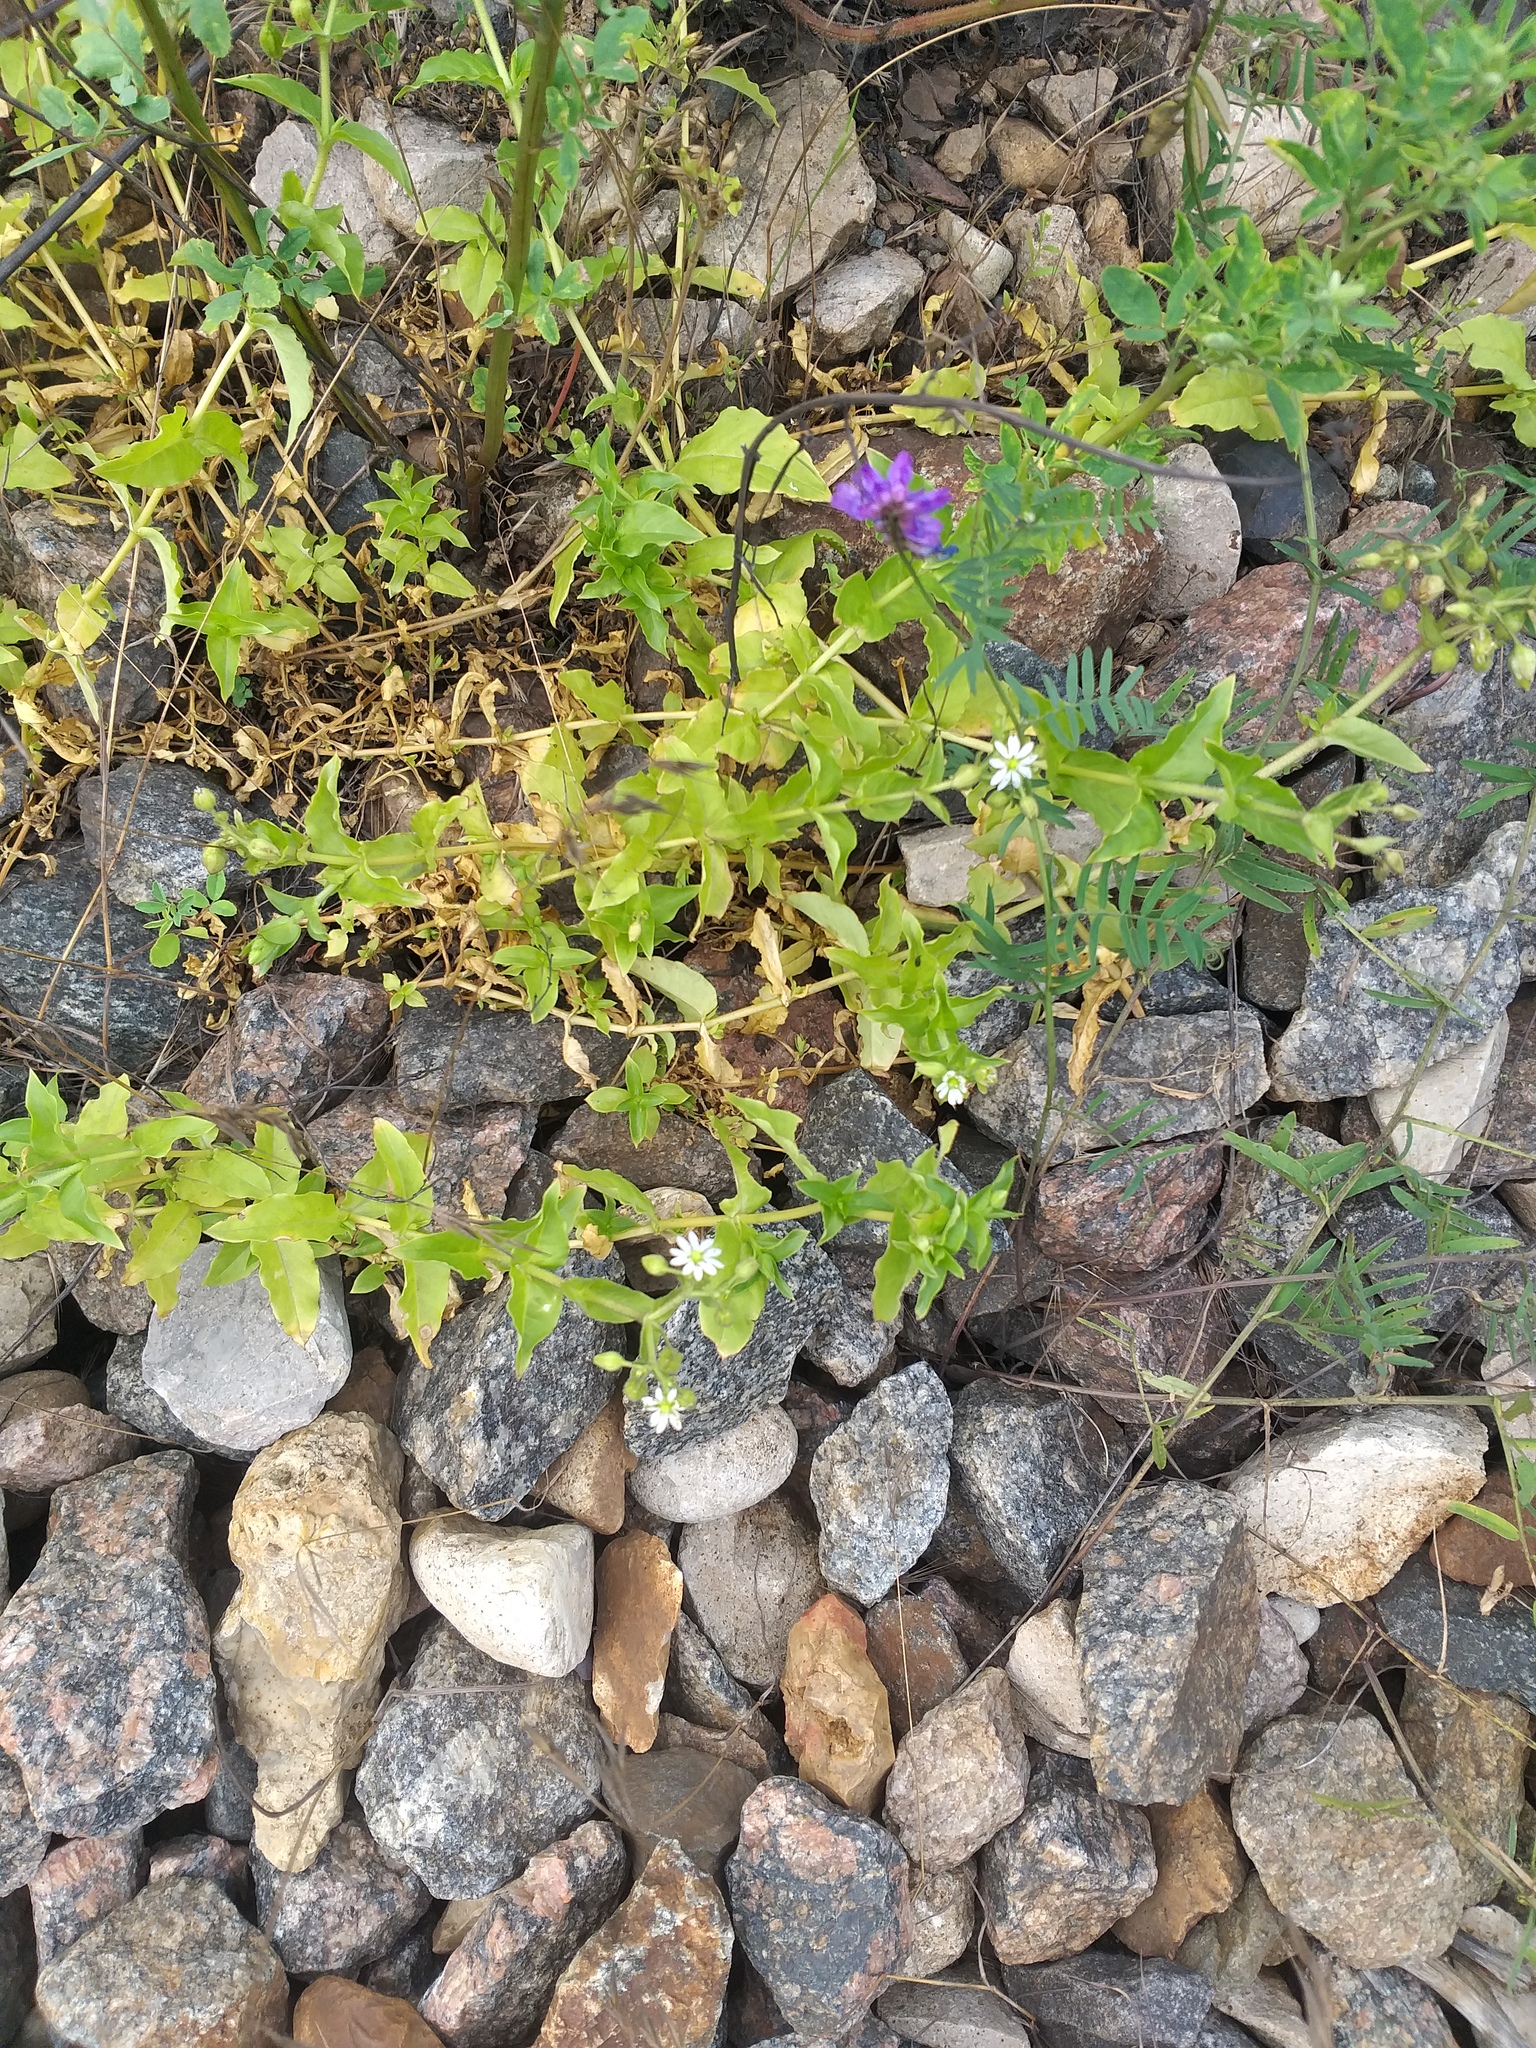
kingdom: Plantae
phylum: Tracheophyta
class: Magnoliopsida
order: Caryophyllales
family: Caryophyllaceae
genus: Stellaria
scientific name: Stellaria aquatica
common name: Water chickweed
